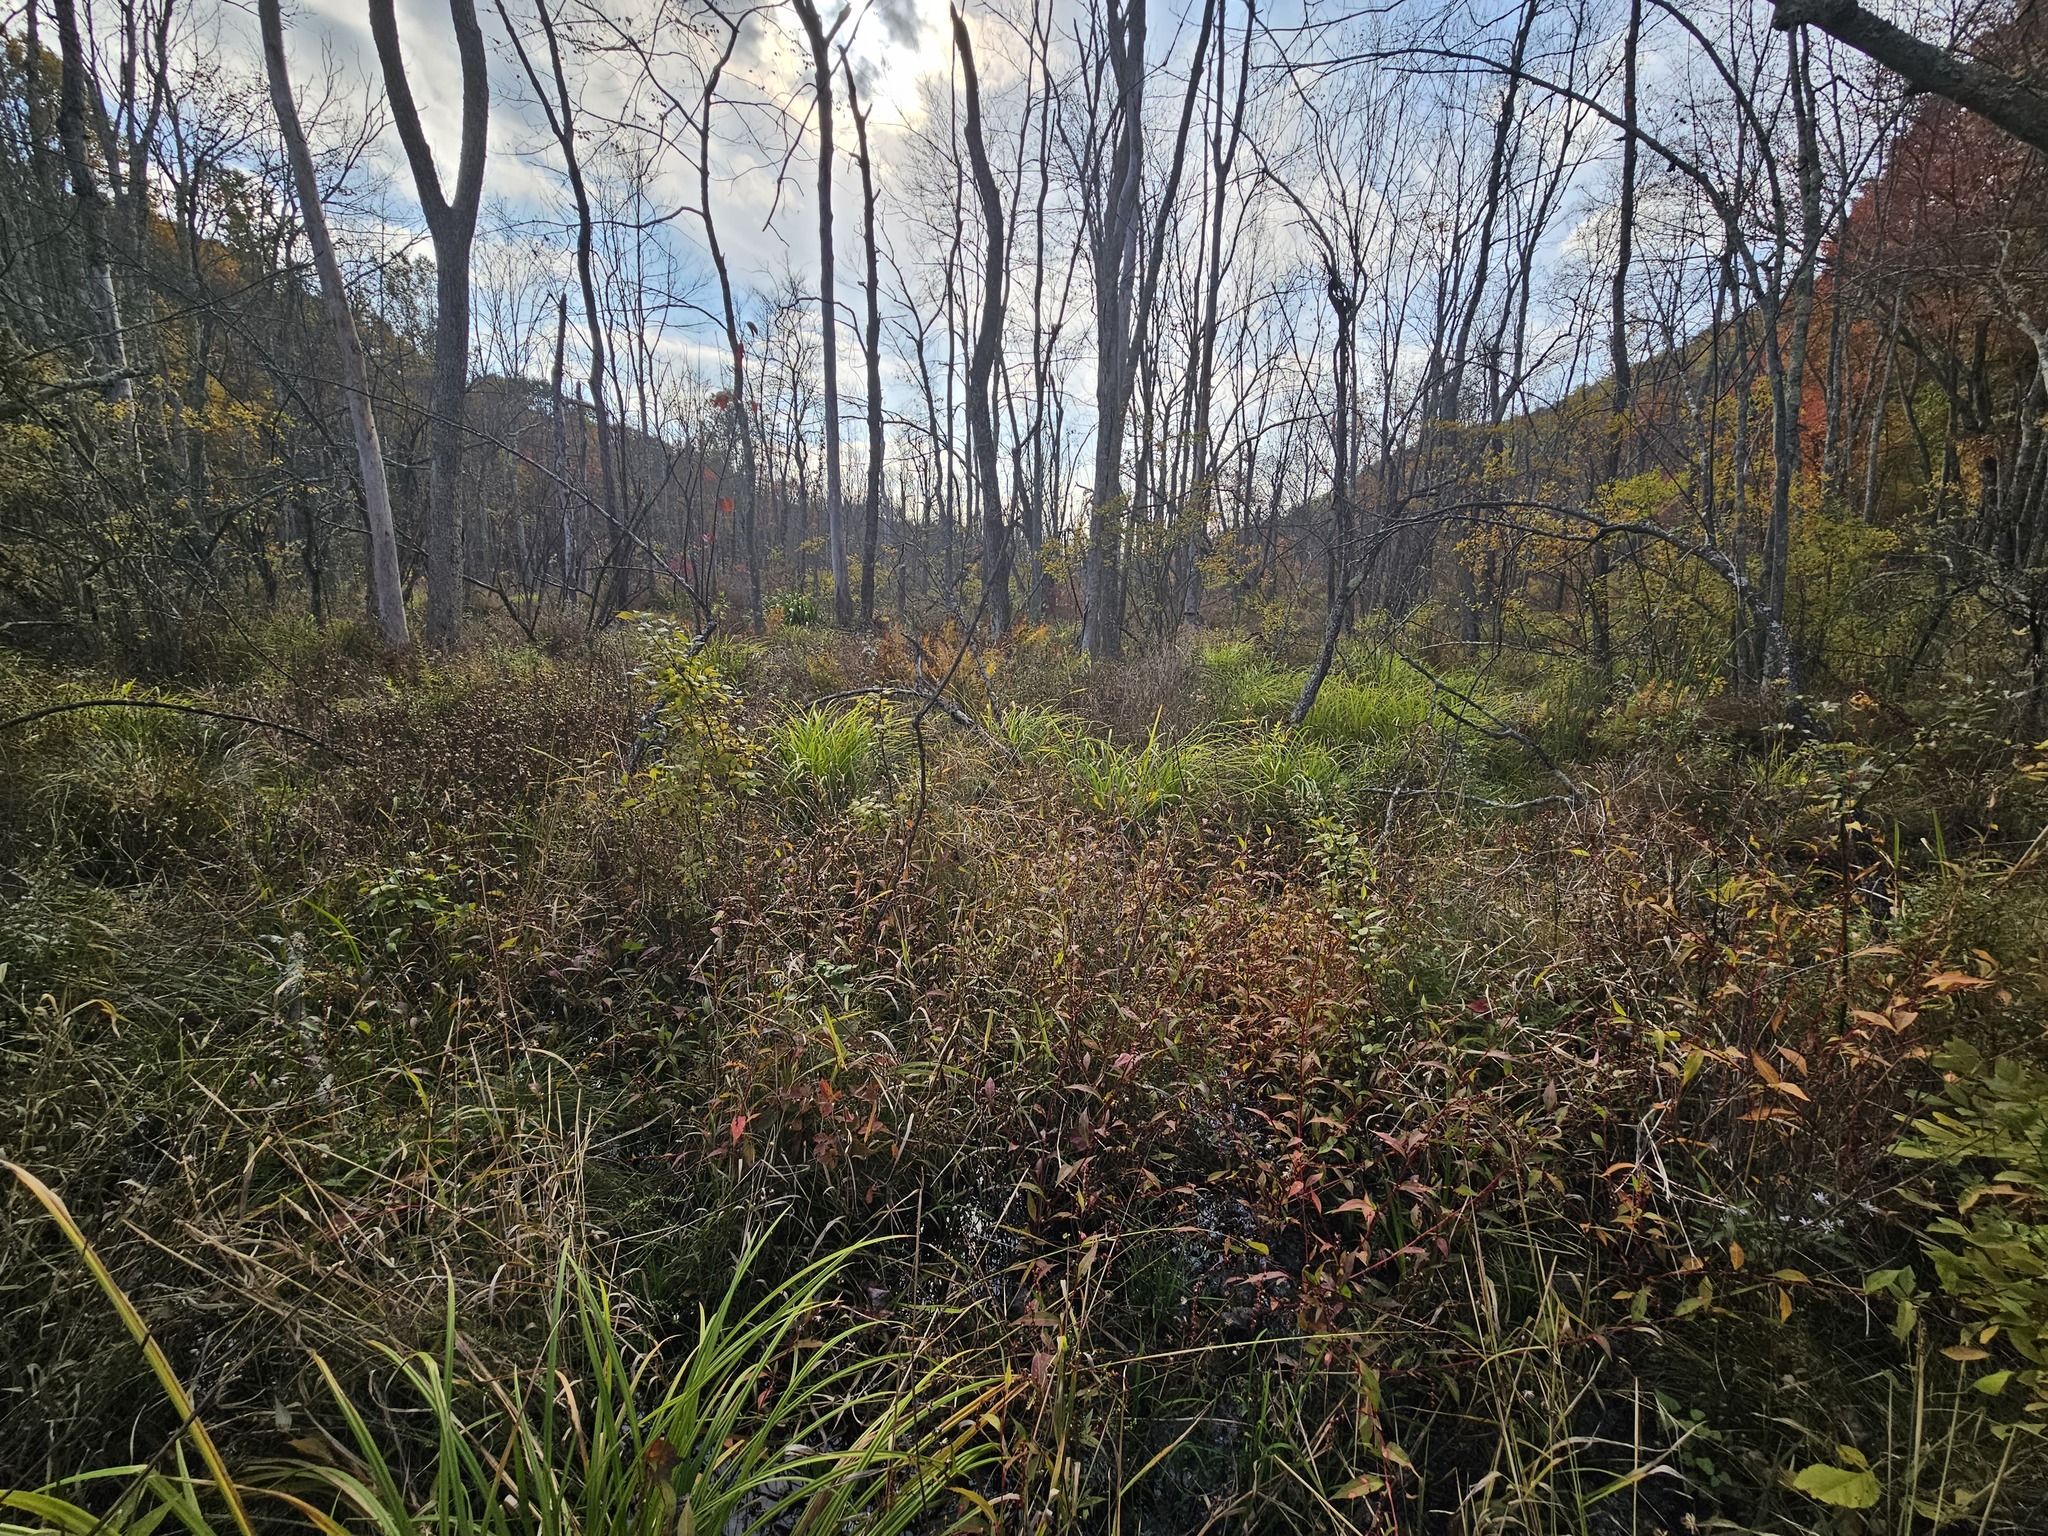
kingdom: Plantae
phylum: Tracheophyta
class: Magnoliopsida
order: Caryophyllales
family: Polygonaceae
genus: Persicaria
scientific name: Persicaria hydropiper
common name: Water-pepper
